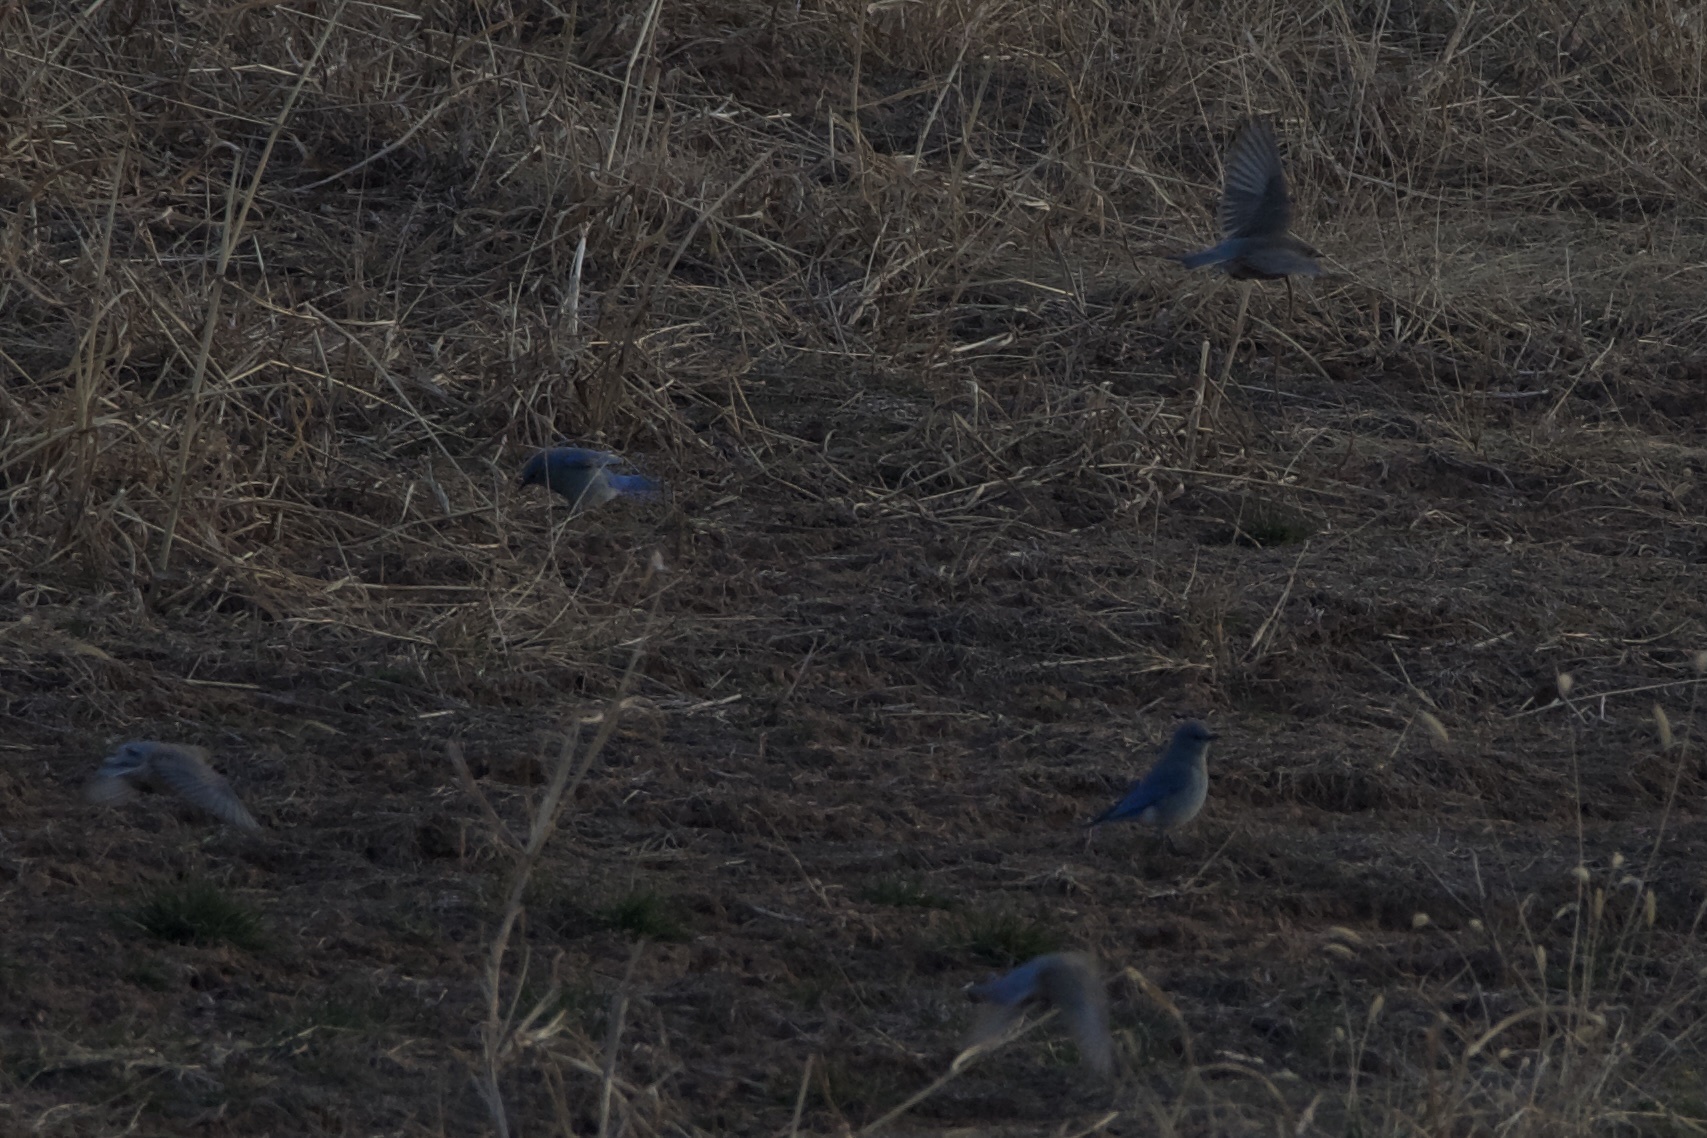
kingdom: Animalia
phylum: Chordata
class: Aves
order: Passeriformes
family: Turdidae
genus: Sialia
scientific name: Sialia currucoides
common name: Mountain bluebird
